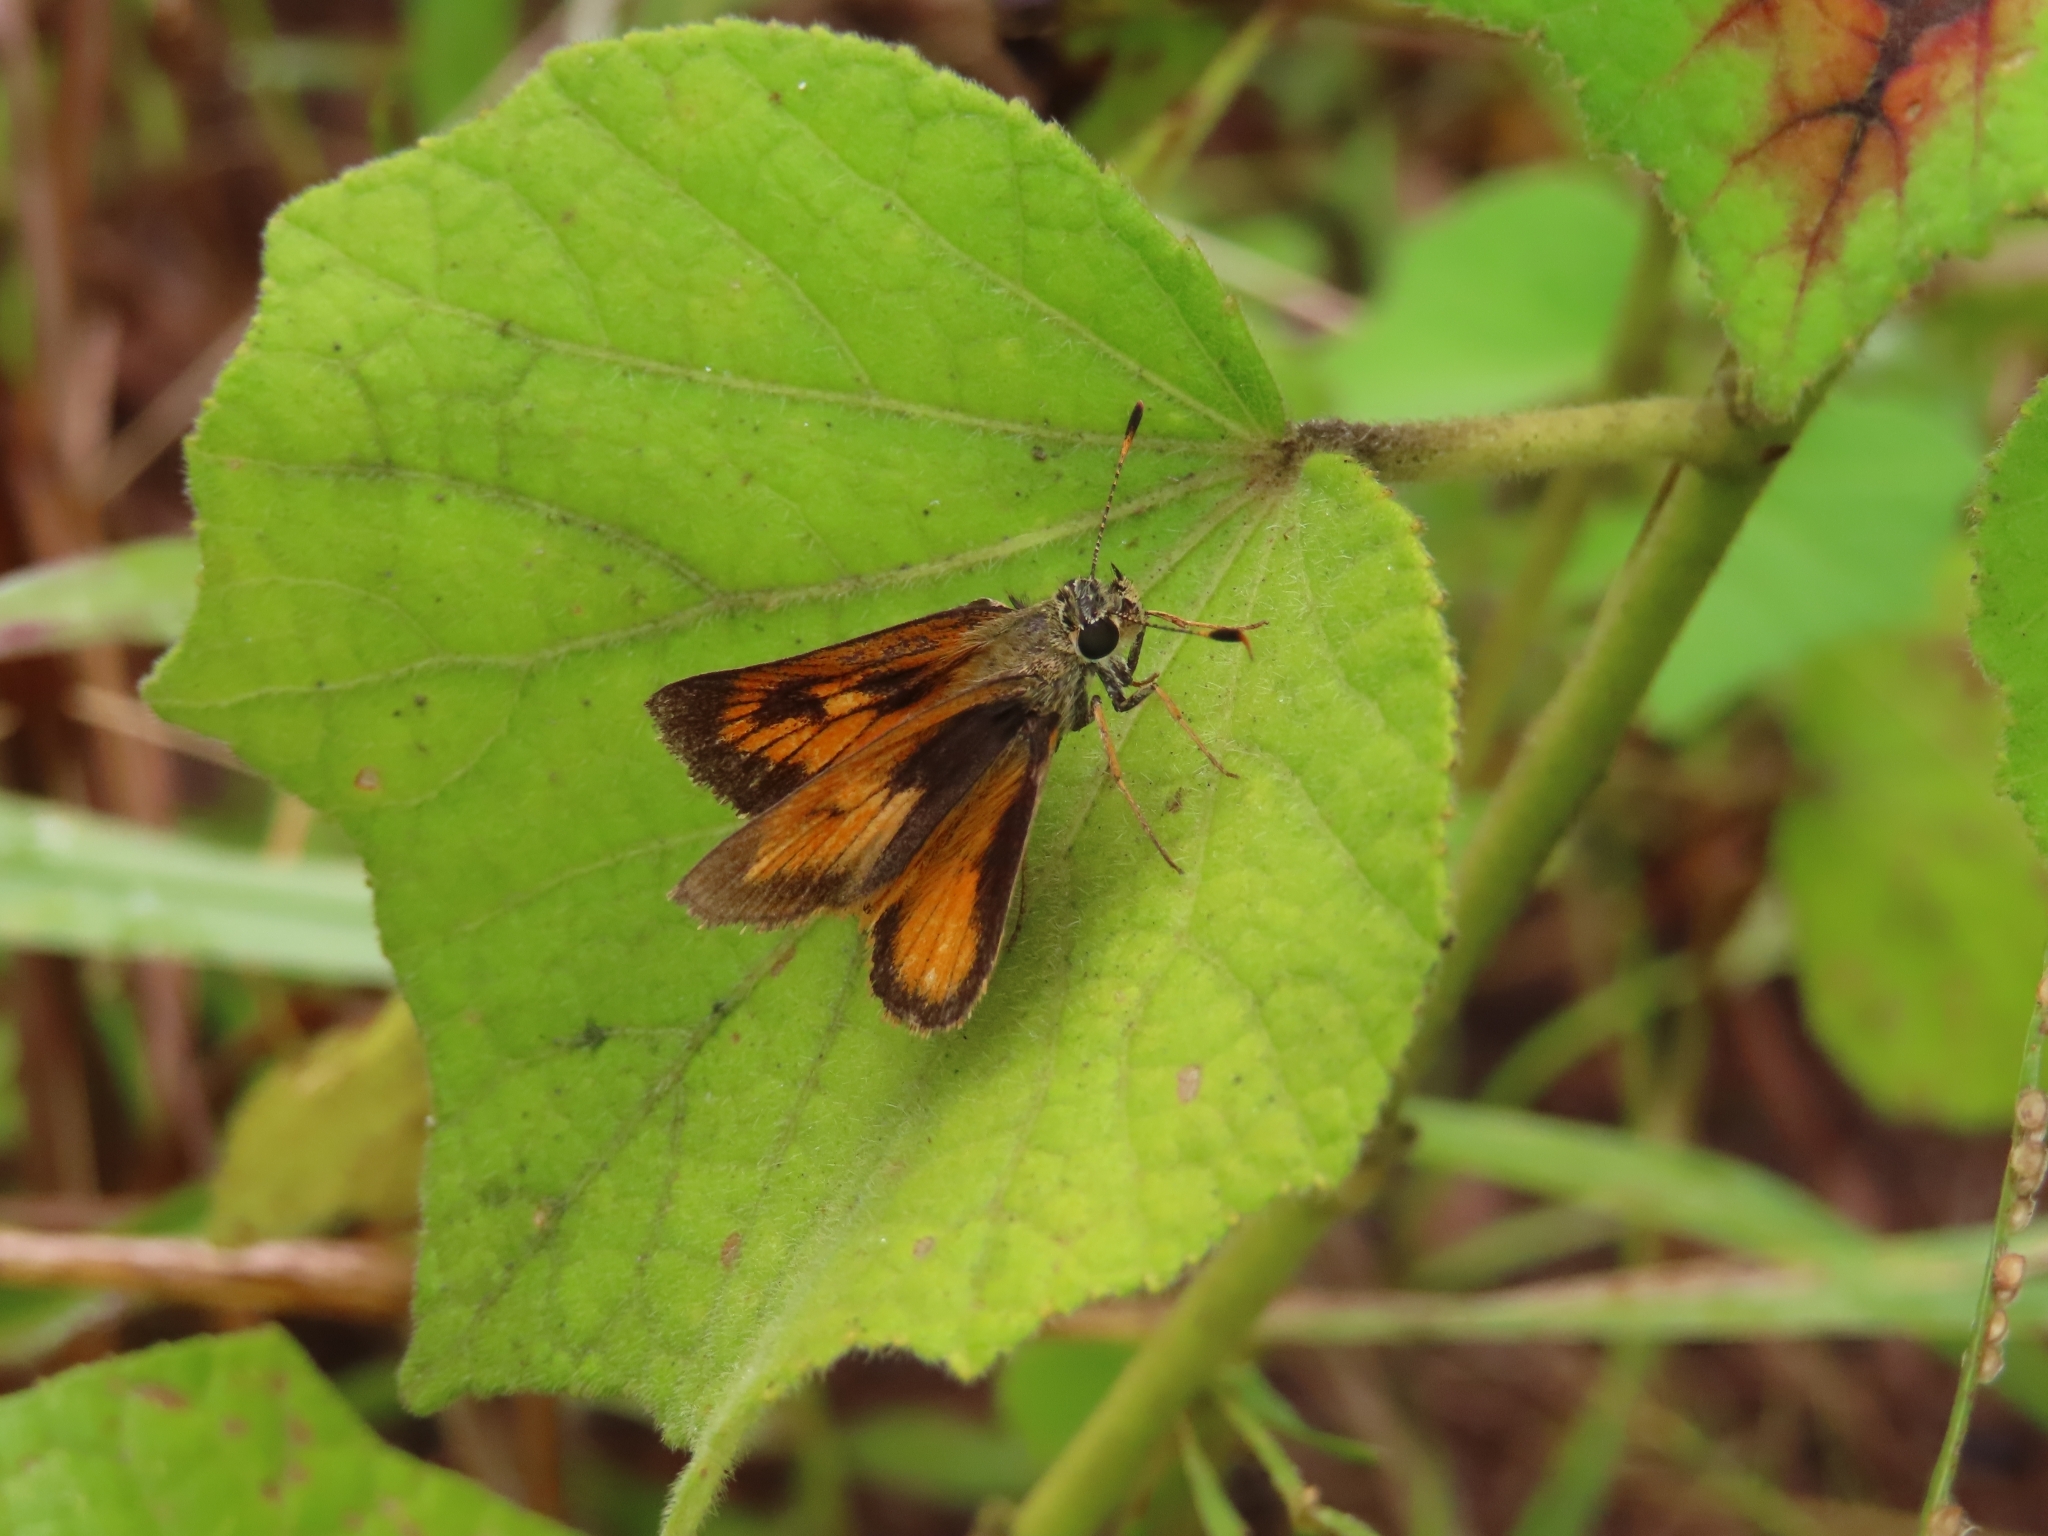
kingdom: Animalia
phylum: Arthropoda
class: Insecta
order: Lepidoptera
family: Hesperiidae
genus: Choranthus
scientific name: Choranthus vitellius
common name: Vitellius skipper
